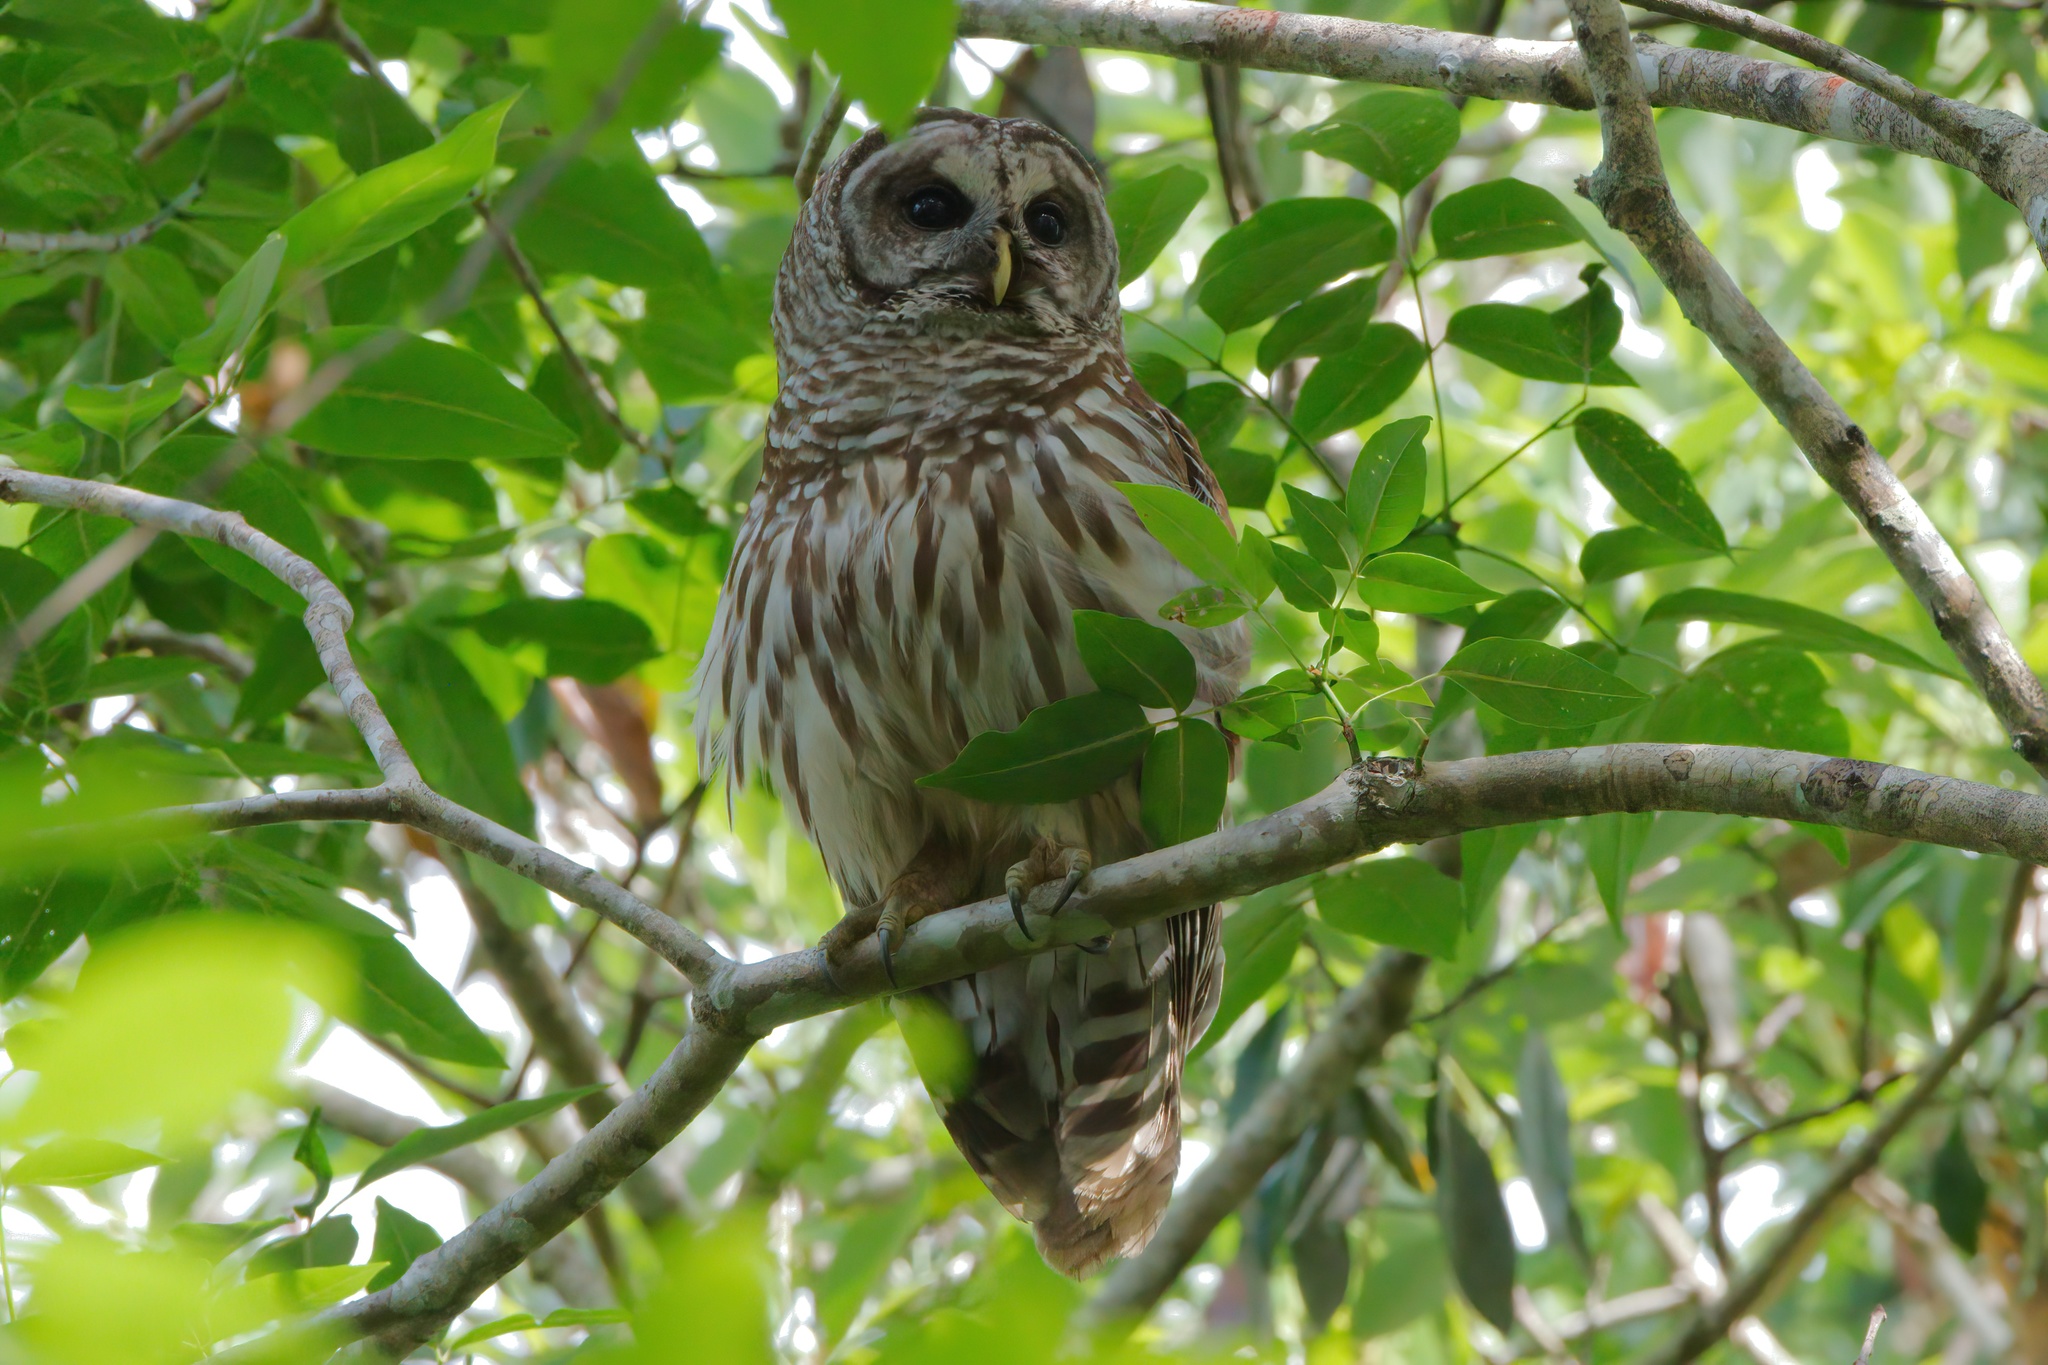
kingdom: Animalia
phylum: Chordata
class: Aves
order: Strigiformes
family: Strigidae
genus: Strix
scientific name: Strix varia
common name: Barred owl
